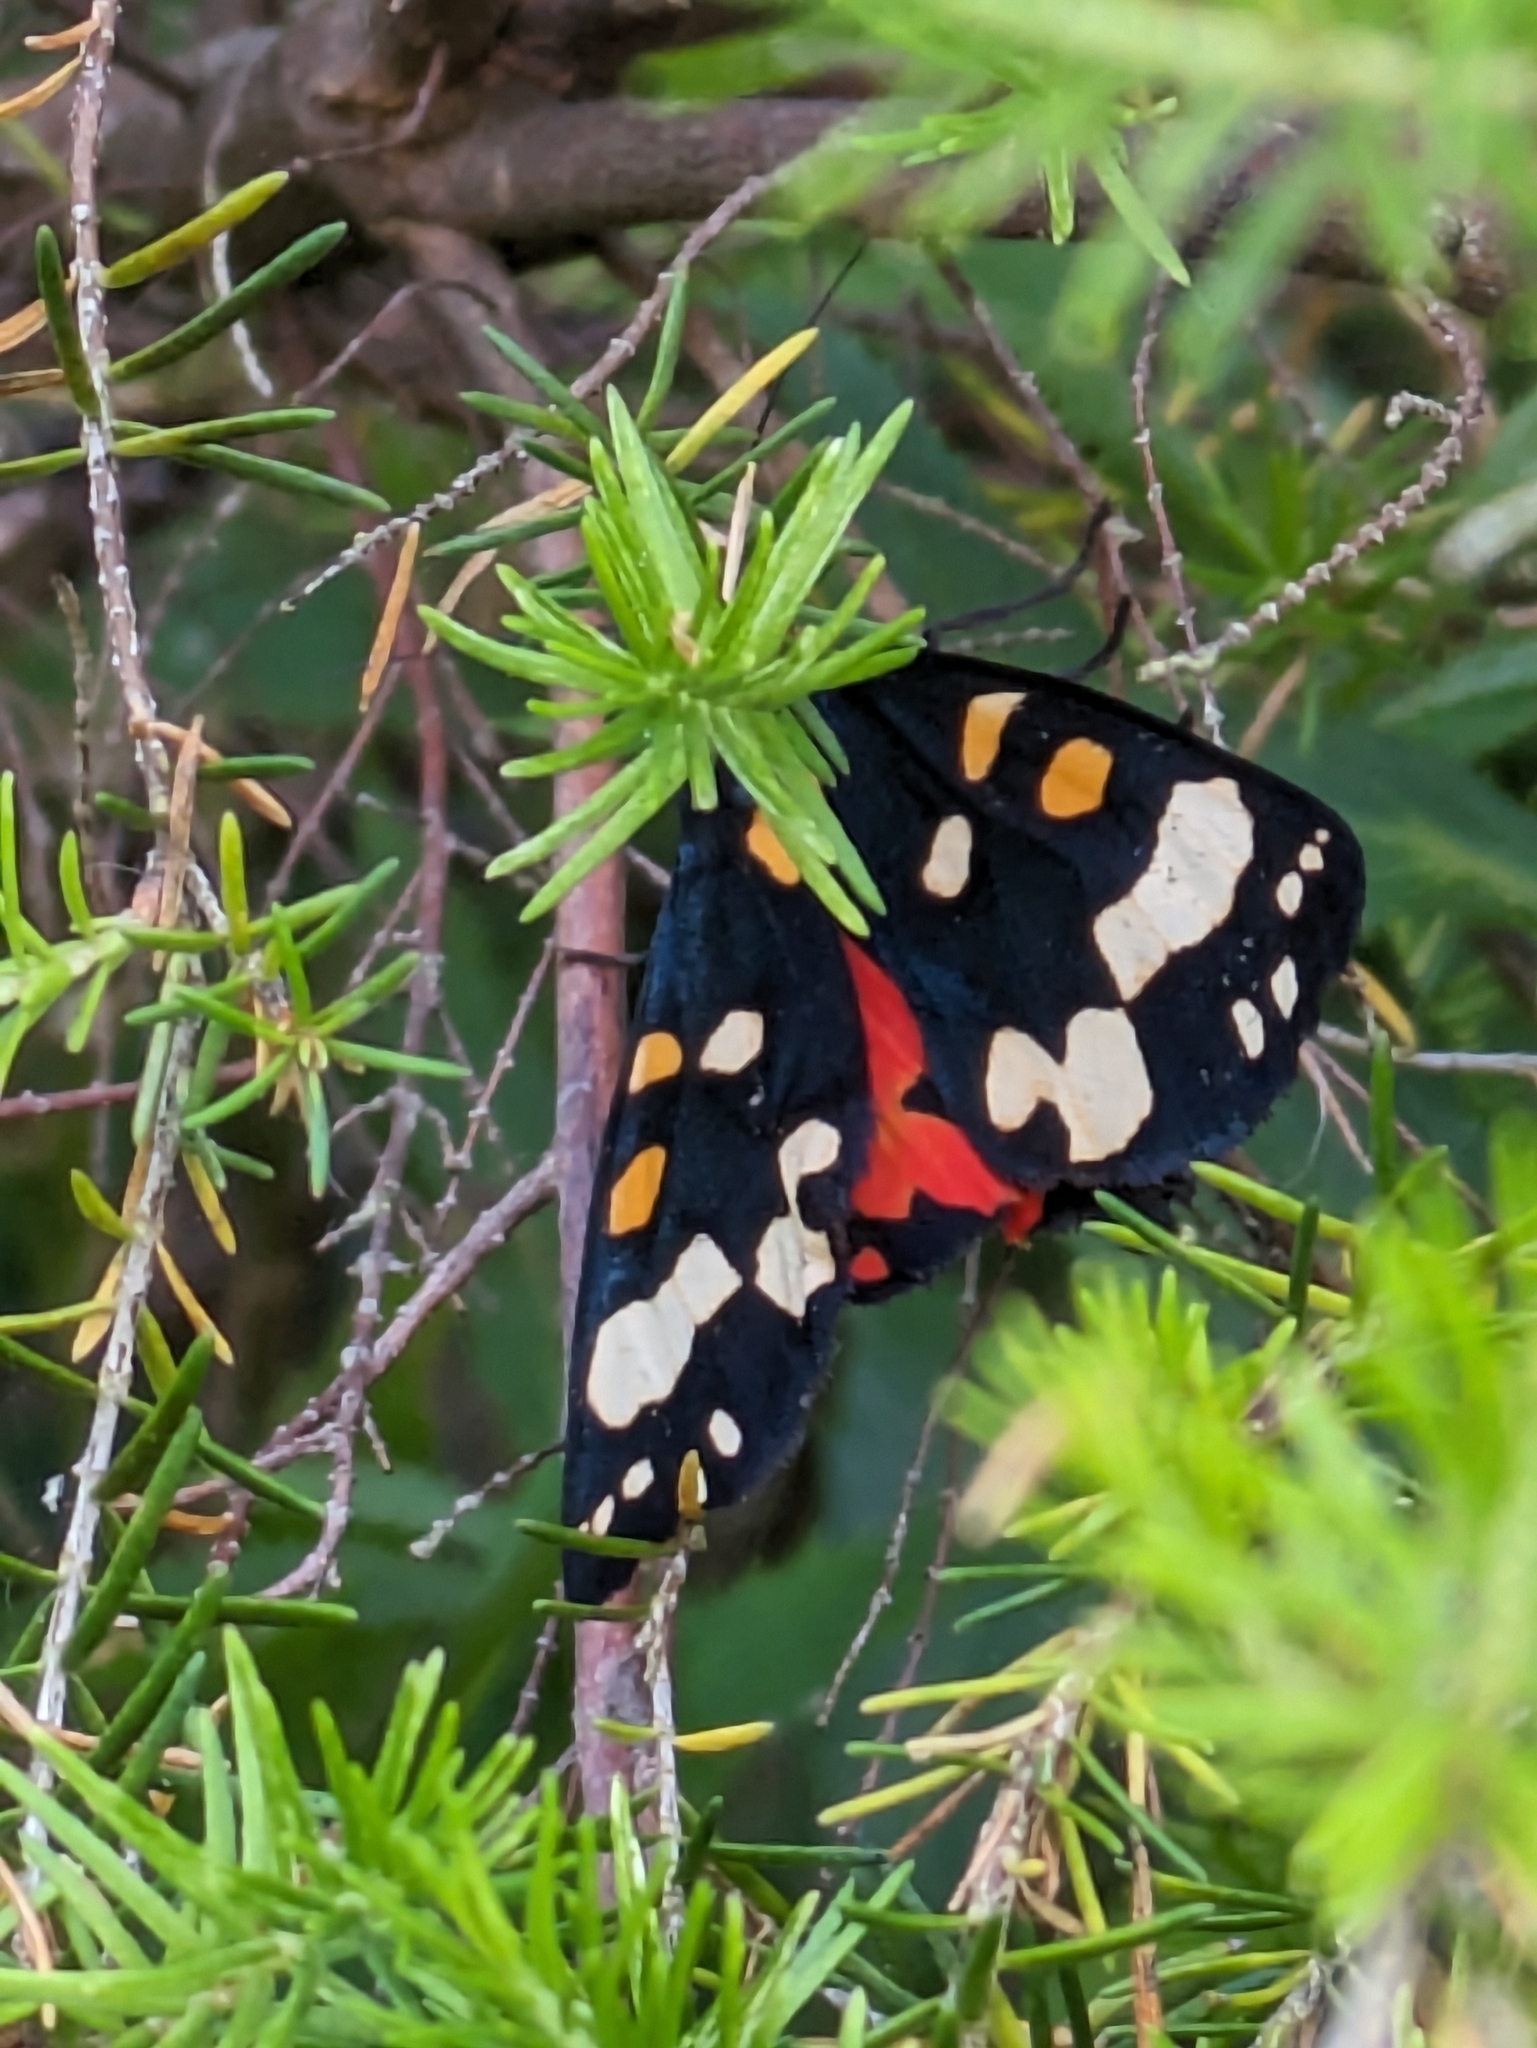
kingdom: Animalia
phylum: Arthropoda
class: Insecta
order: Lepidoptera
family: Erebidae
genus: Callimorpha
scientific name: Callimorpha dominula
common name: Scarlet tiger
